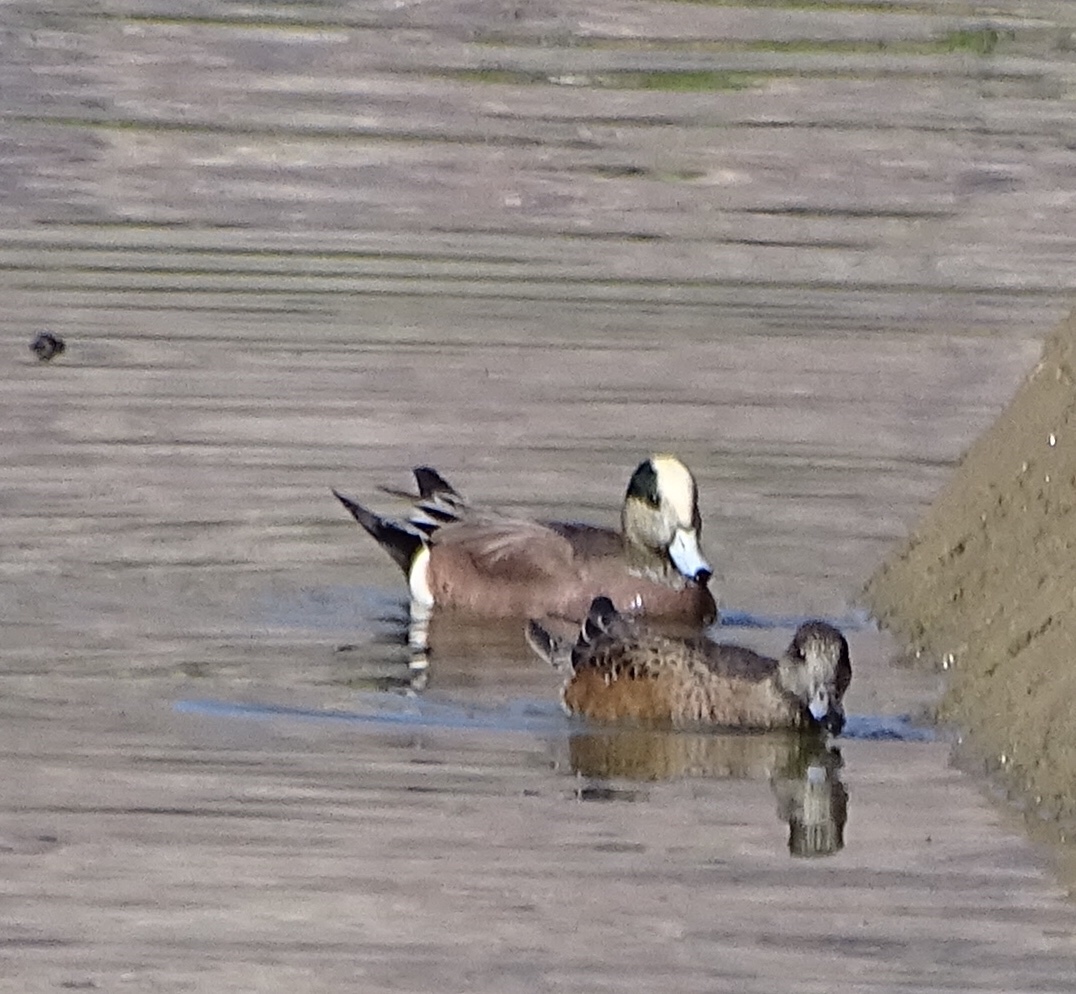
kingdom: Animalia
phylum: Chordata
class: Aves
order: Anseriformes
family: Anatidae
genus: Mareca
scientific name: Mareca americana
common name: American wigeon
